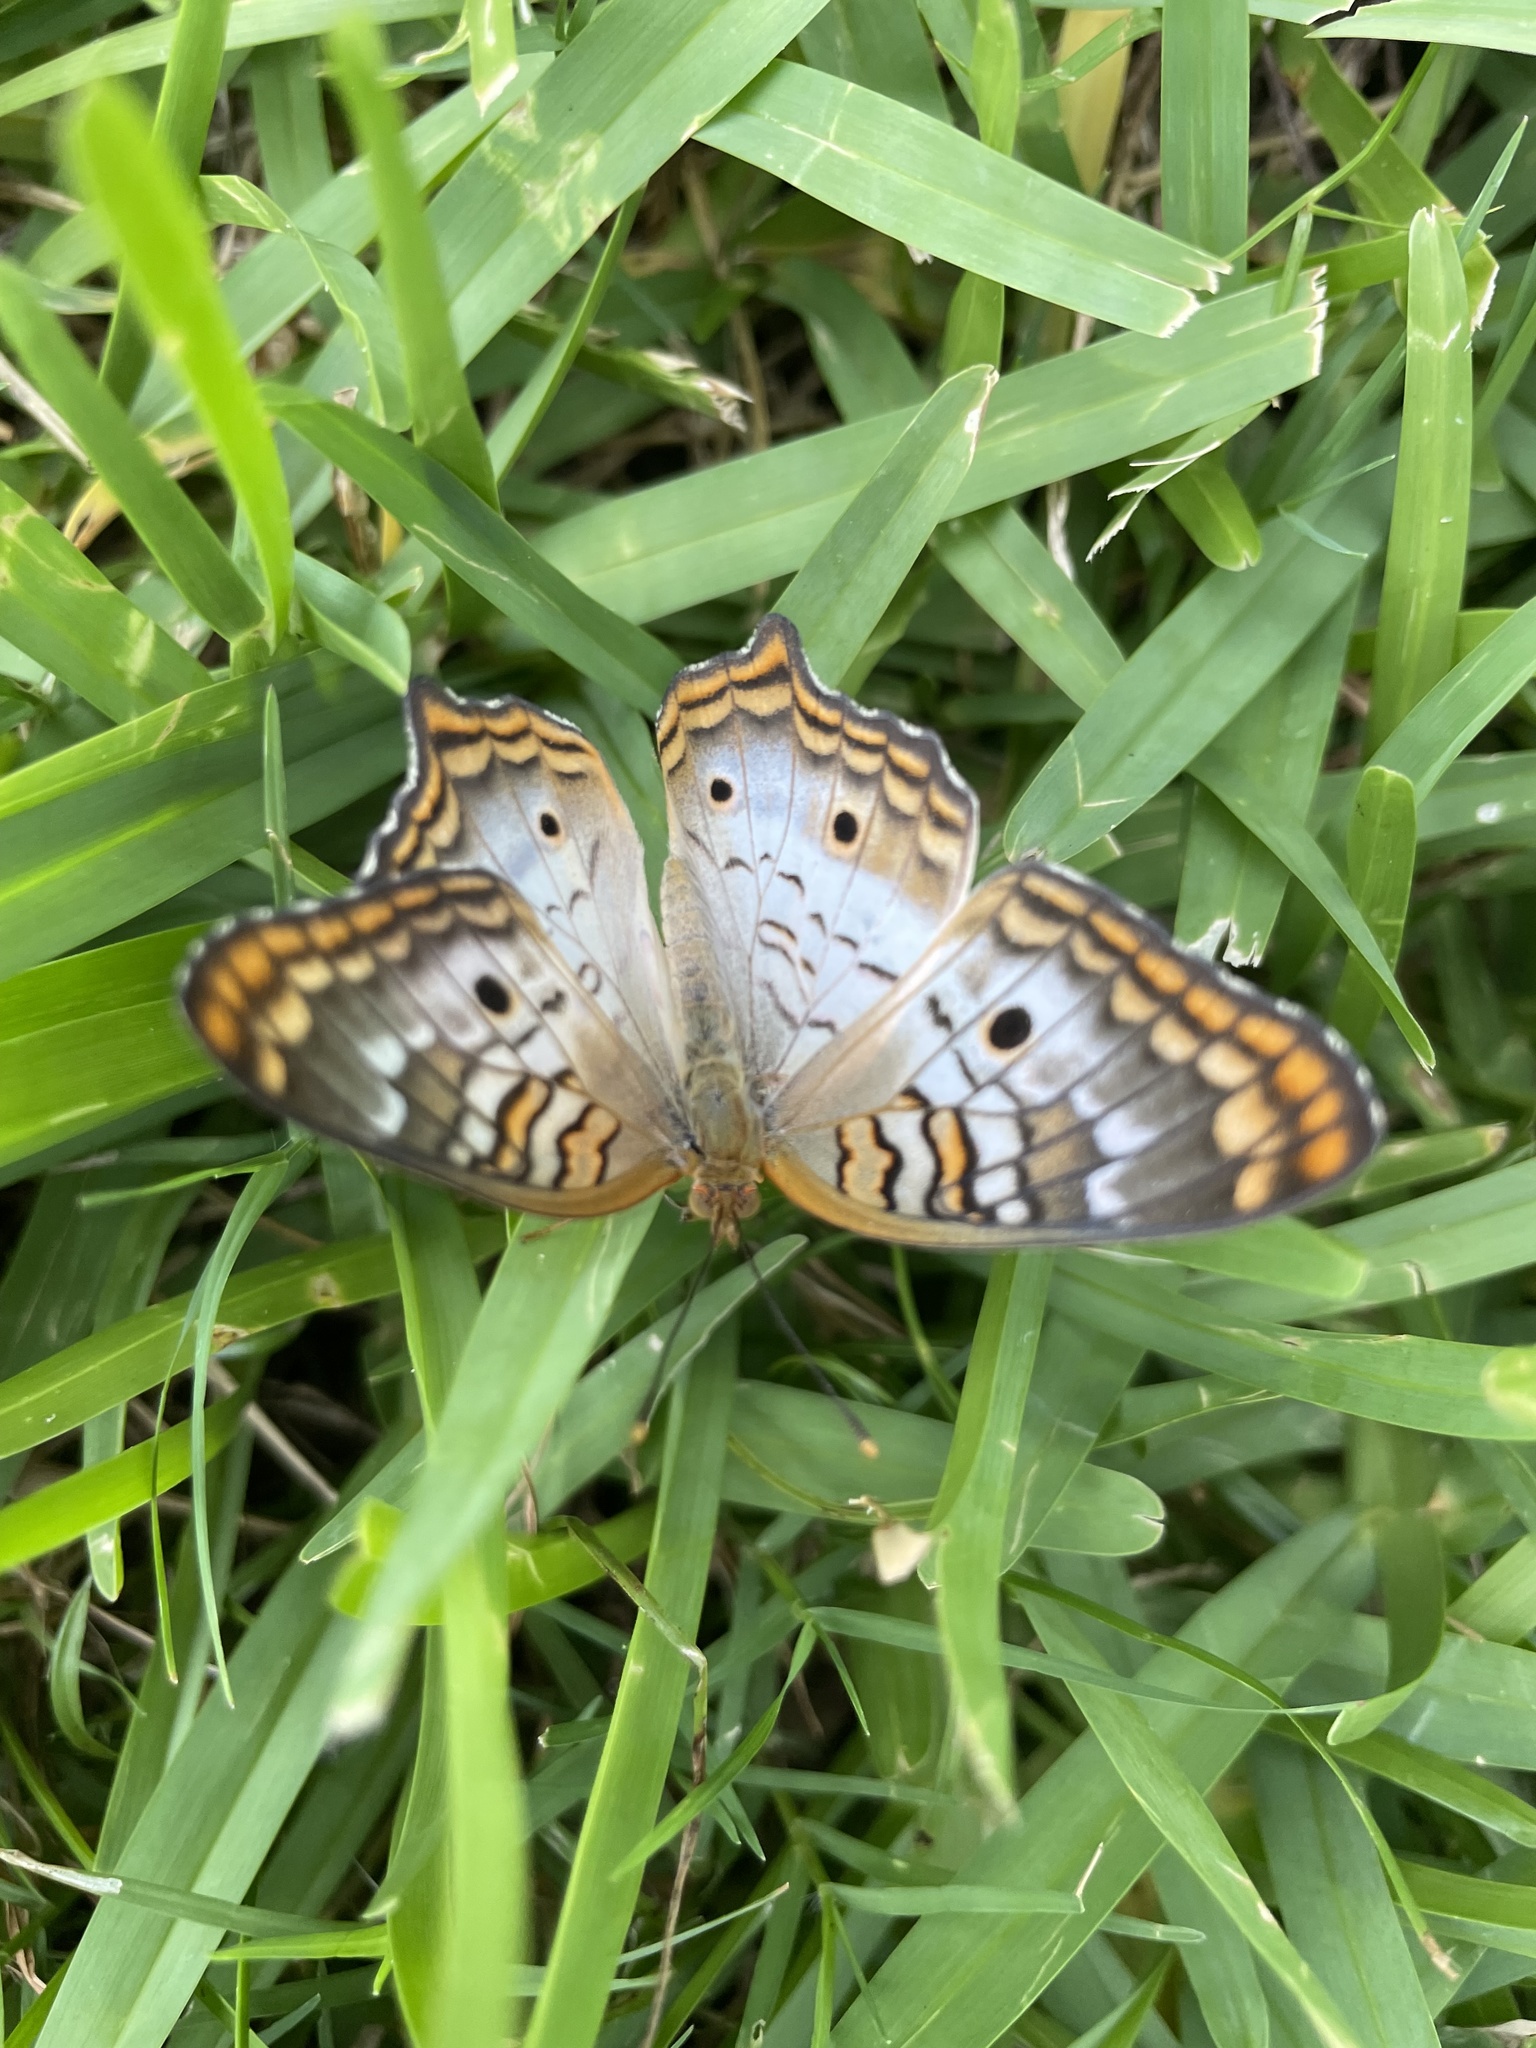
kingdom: Animalia
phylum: Arthropoda
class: Insecta
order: Lepidoptera
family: Nymphalidae
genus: Anartia
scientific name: Anartia jatrophae
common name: White peacock
